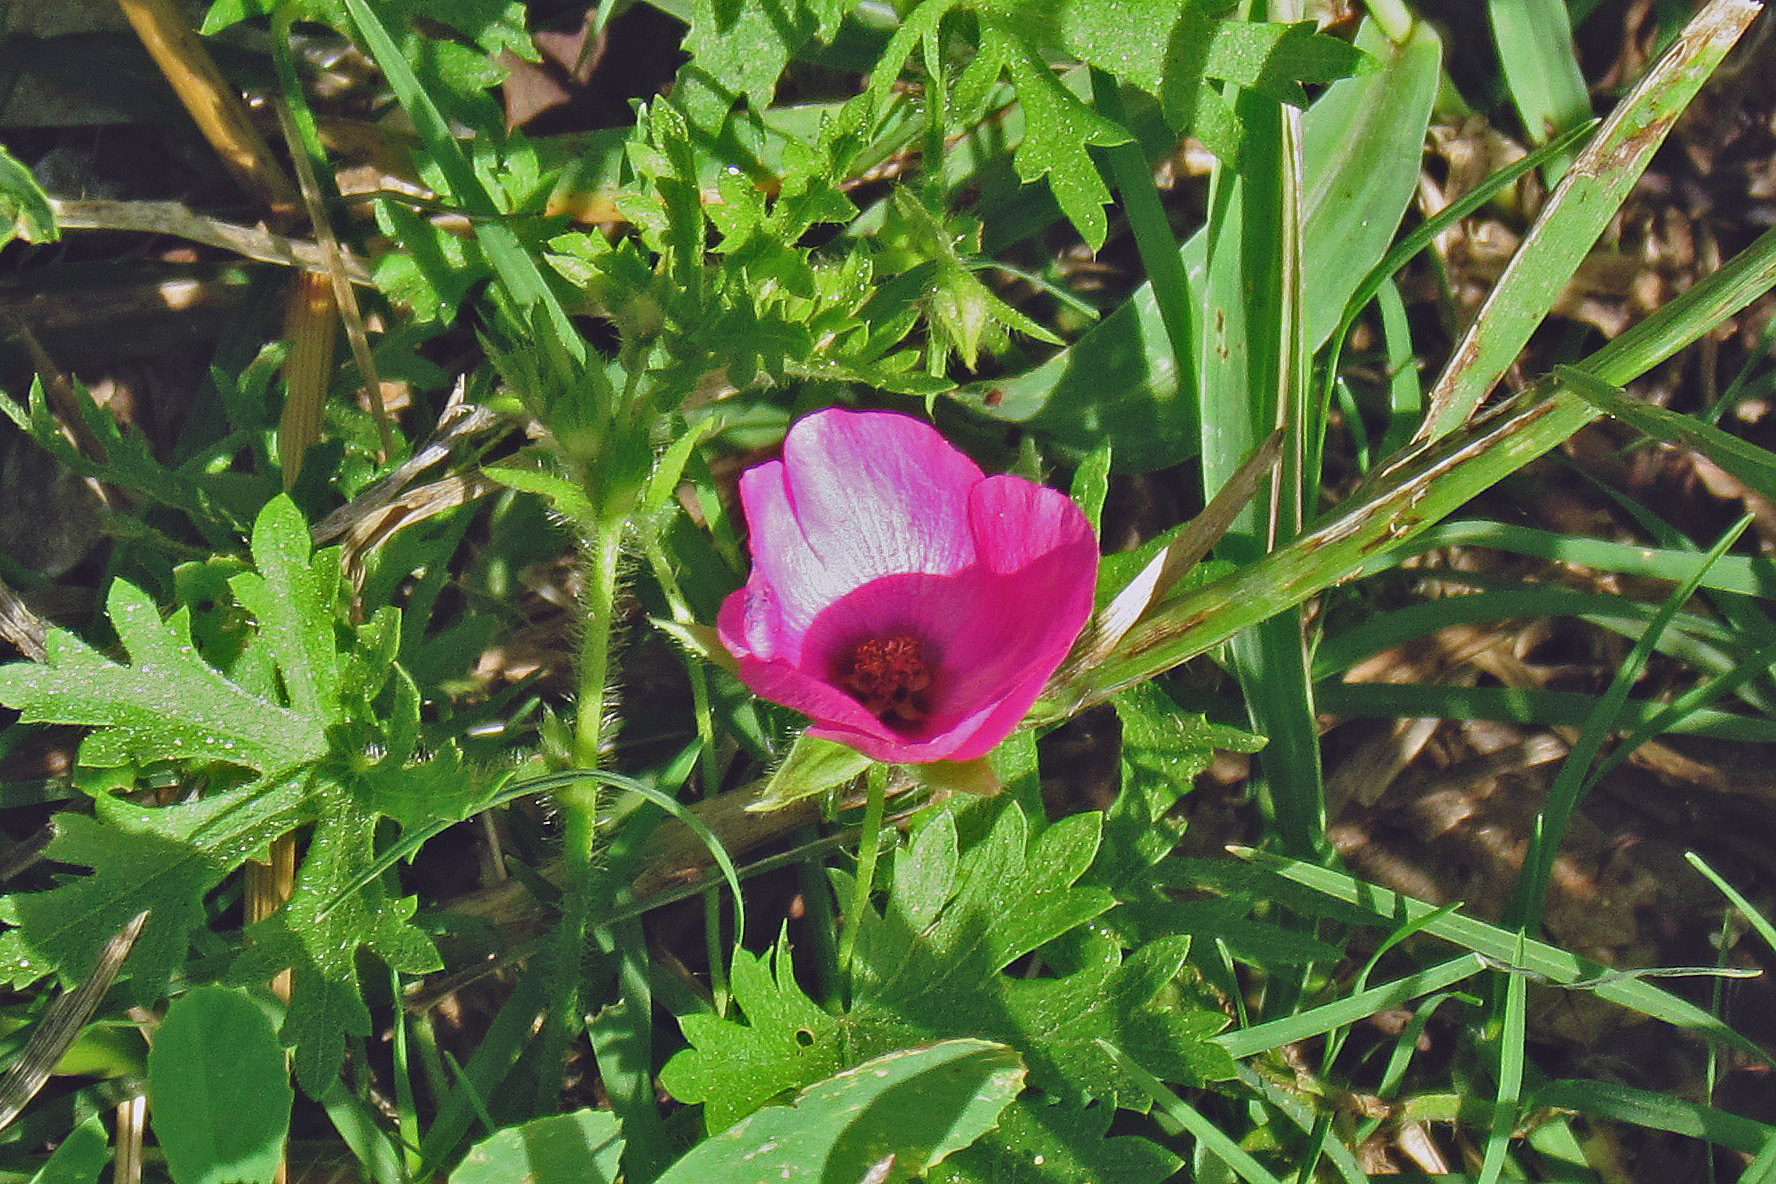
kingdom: Plantae
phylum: Tracheophyta
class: Magnoliopsida
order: Malvales
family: Malvaceae
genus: Modiolastrum
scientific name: Modiolastrum gilliesii
